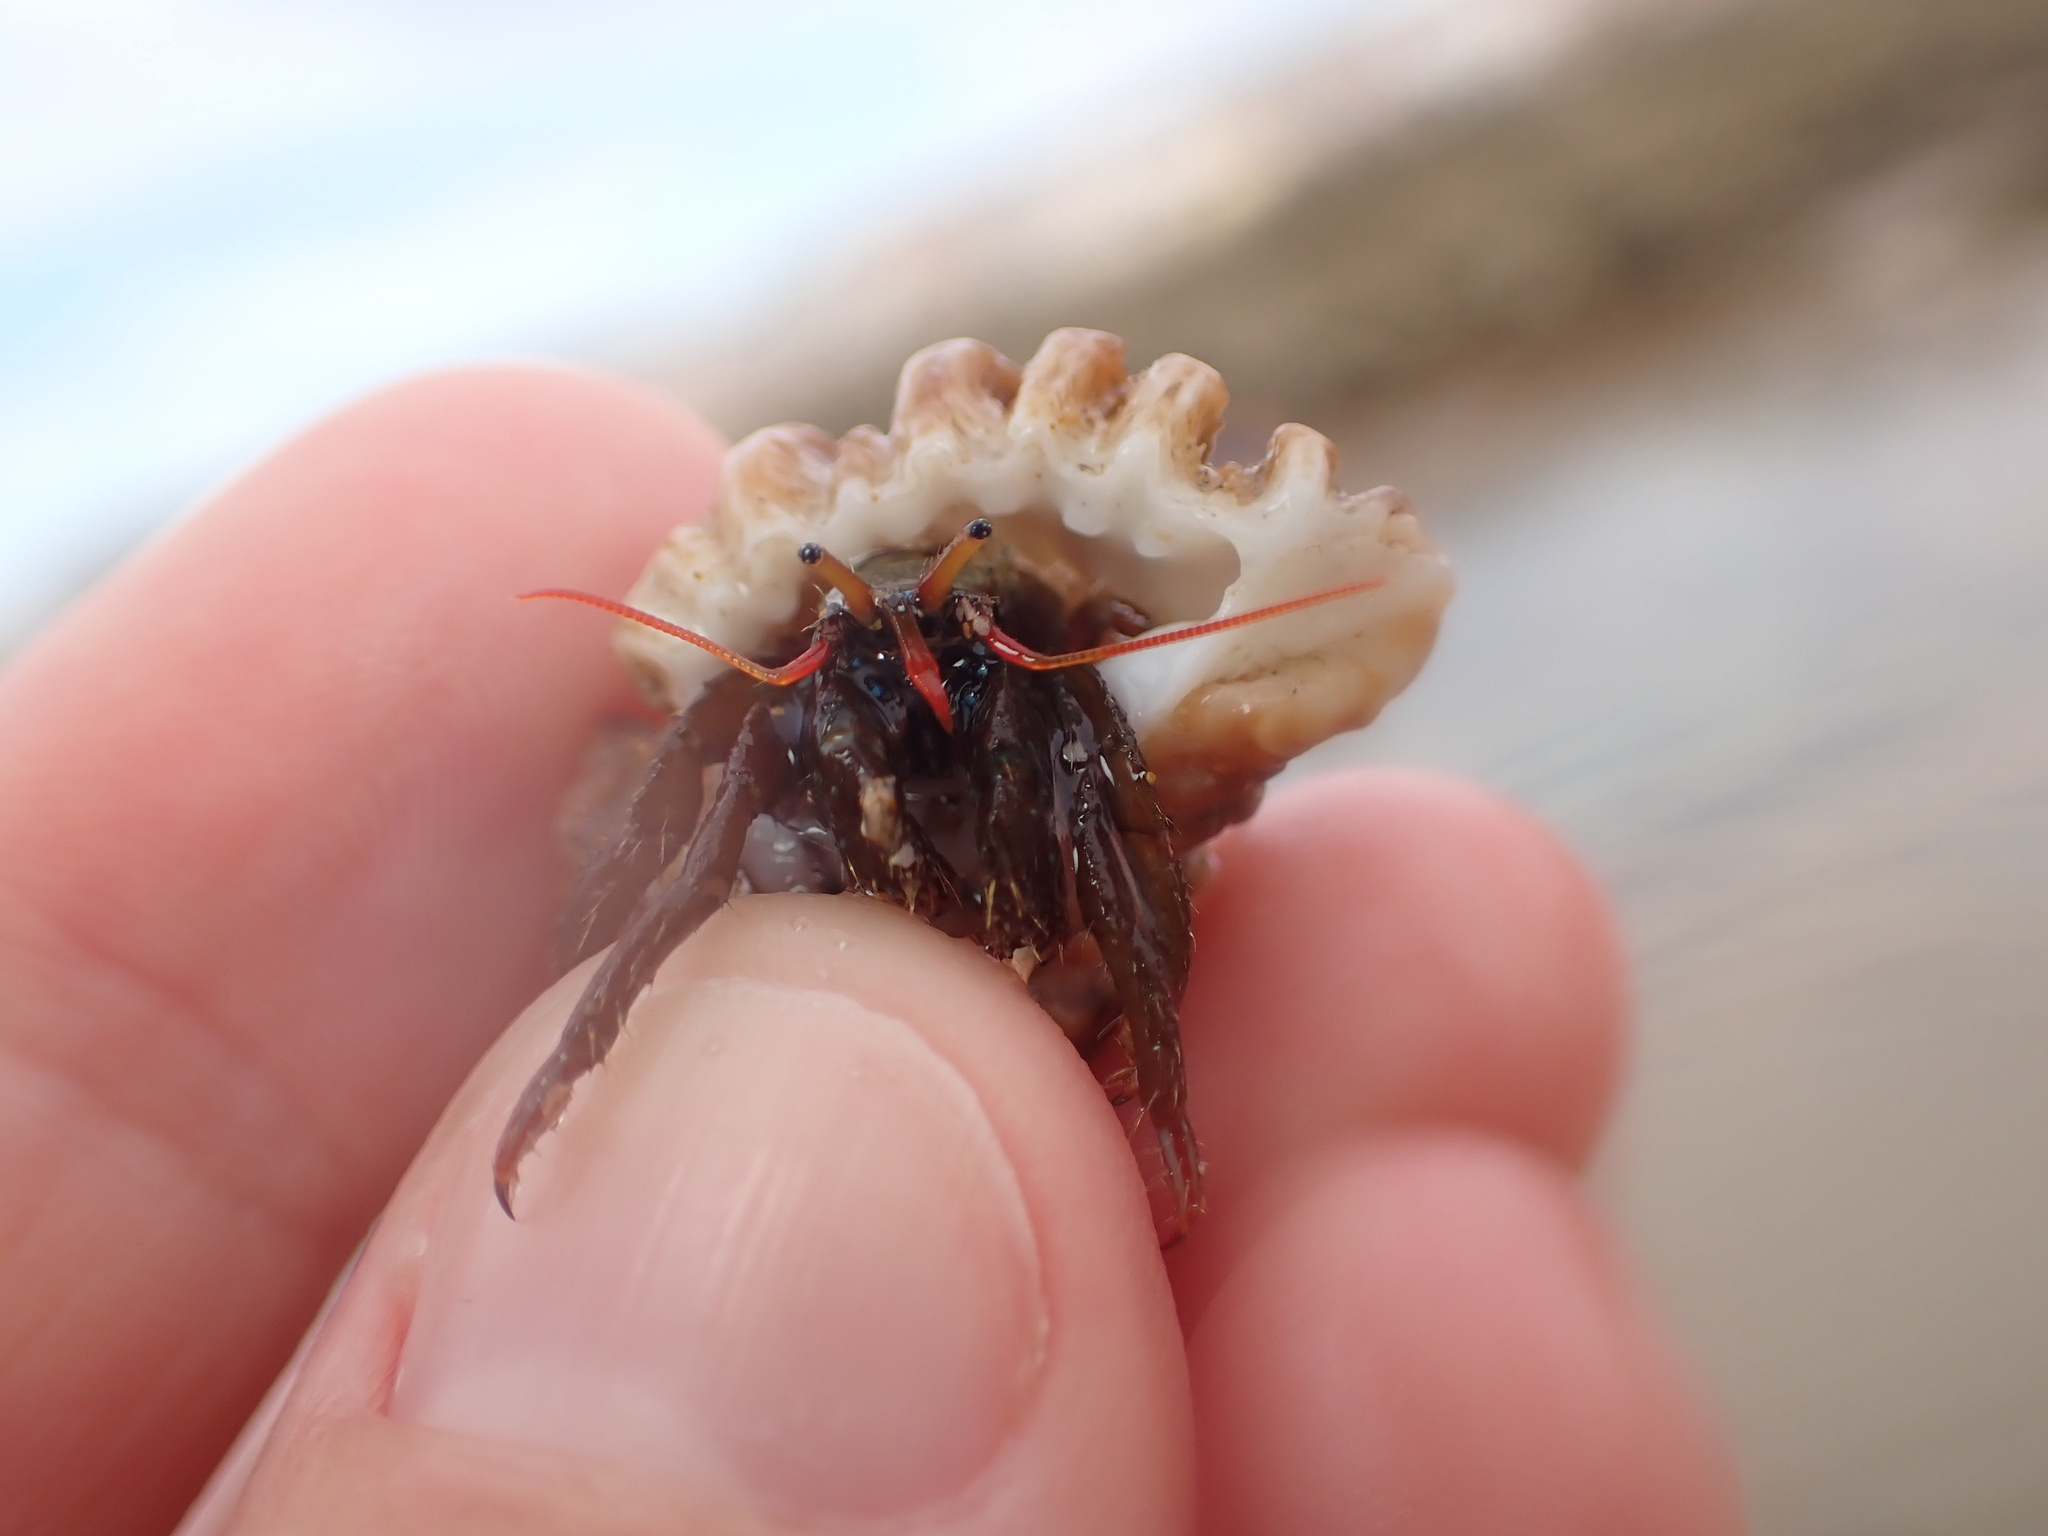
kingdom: Animalia
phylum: Arthropoda
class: Malacostraca
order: Decapoda
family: Diogenidae
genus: Clibanarius
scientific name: Clibanarius erythropus
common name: Hermit crab
